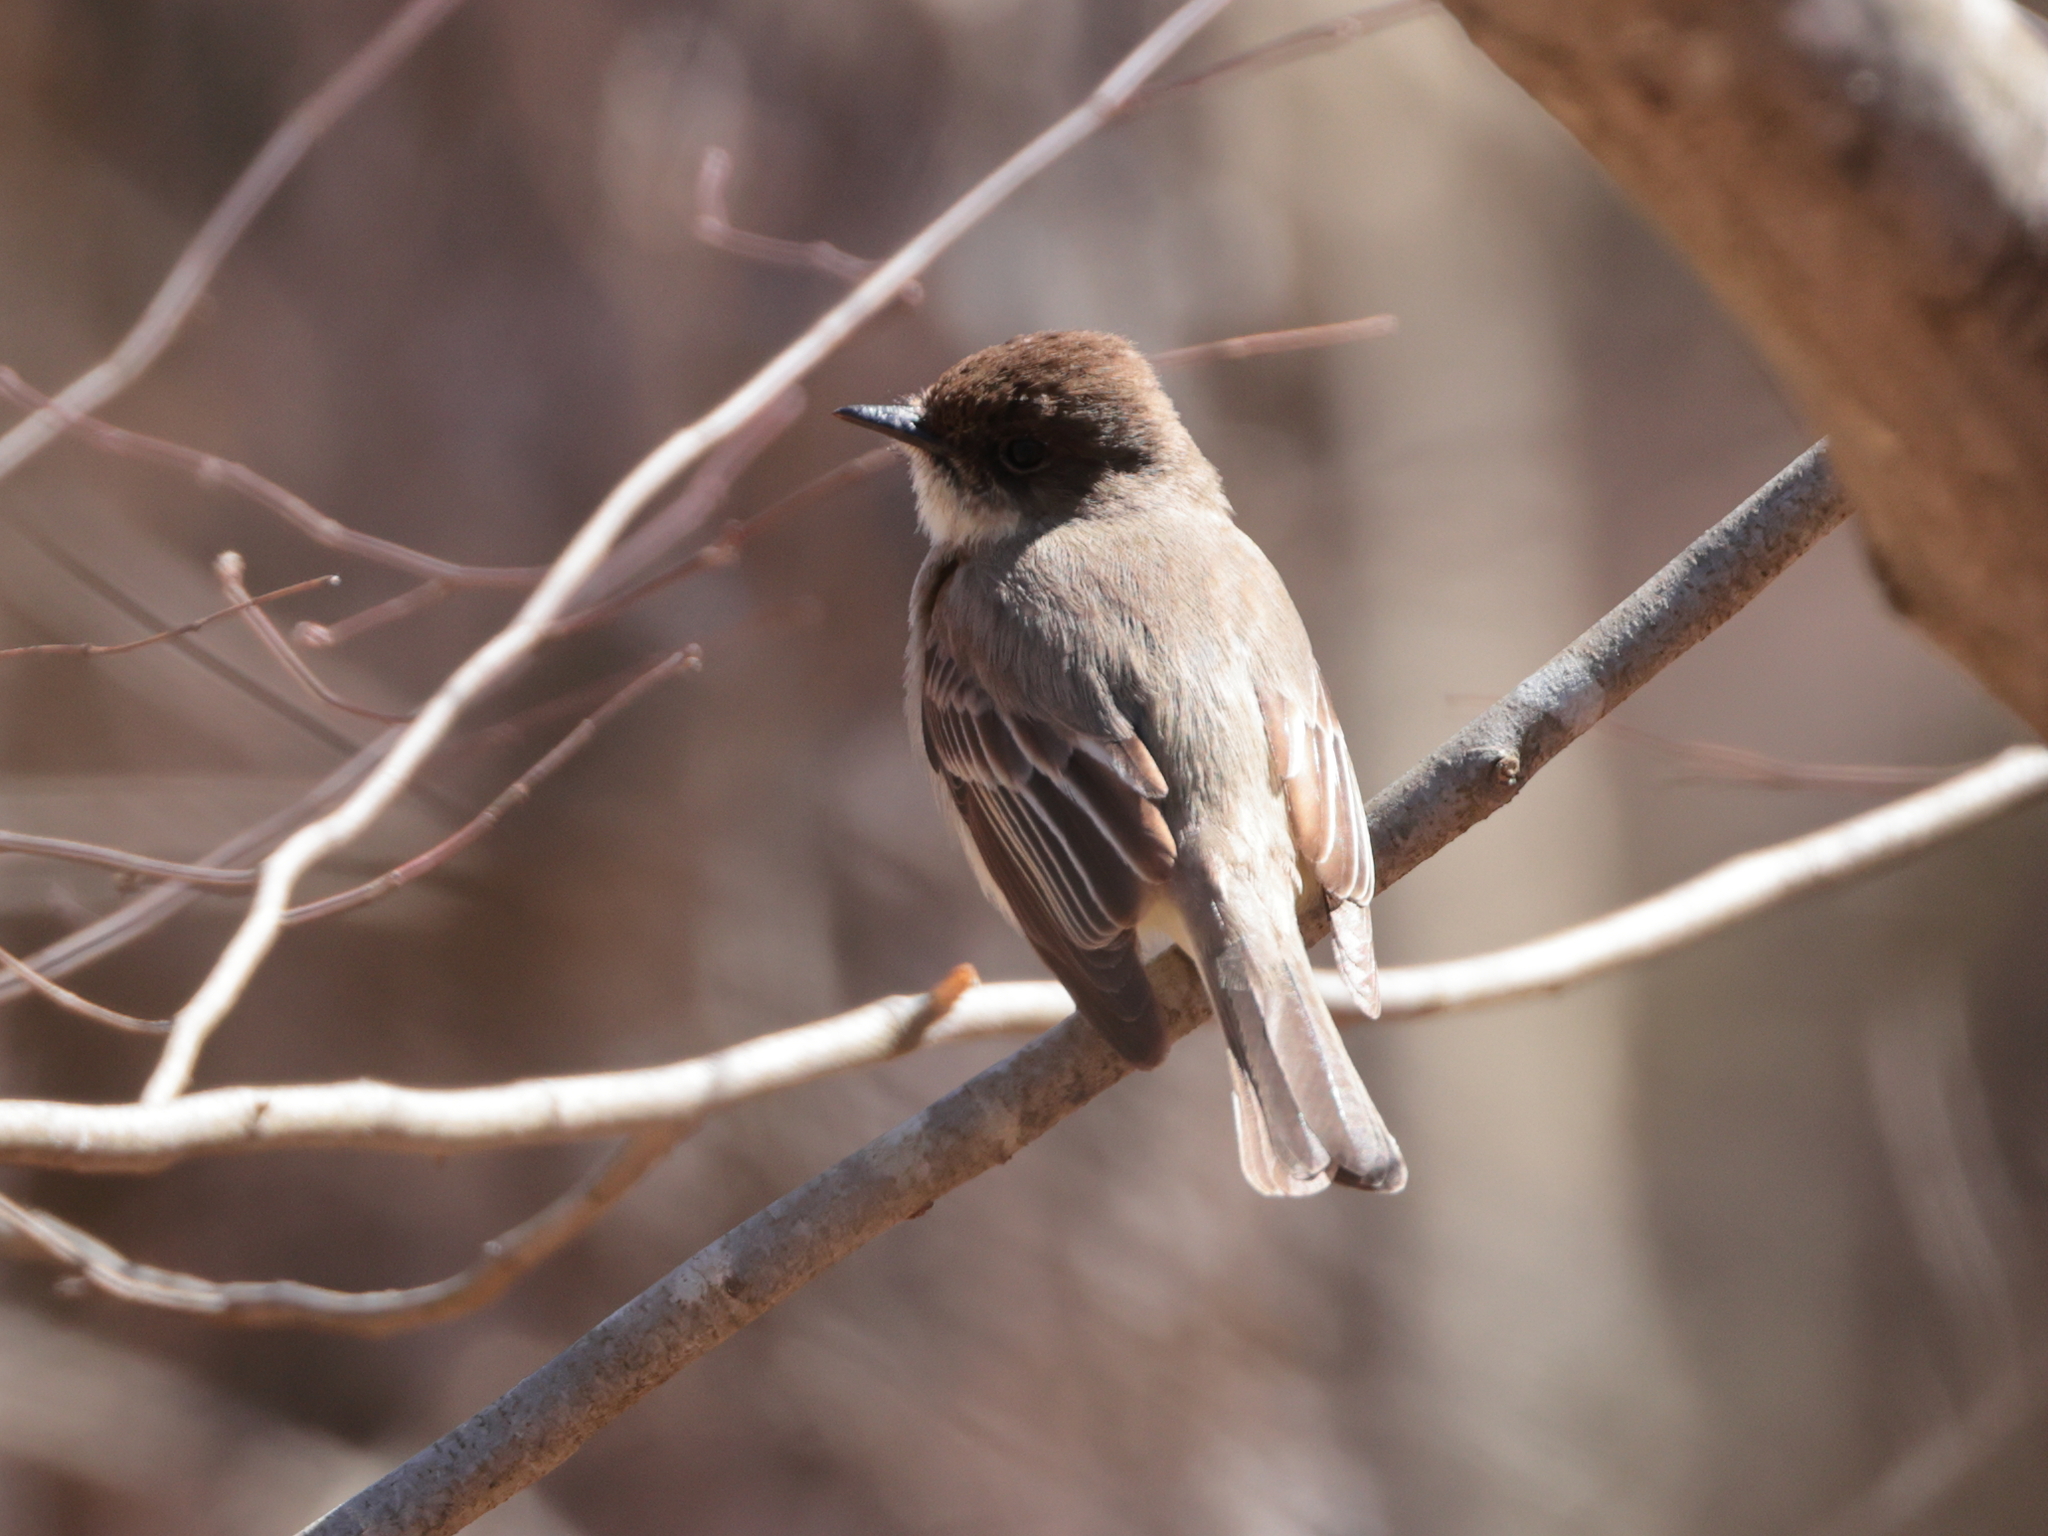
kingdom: Animalia
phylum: Chordata
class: Aves
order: Passeriformes
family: Tyrannidae
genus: Sayornis
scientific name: Sayornis phoebe
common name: Eastern phoebe
